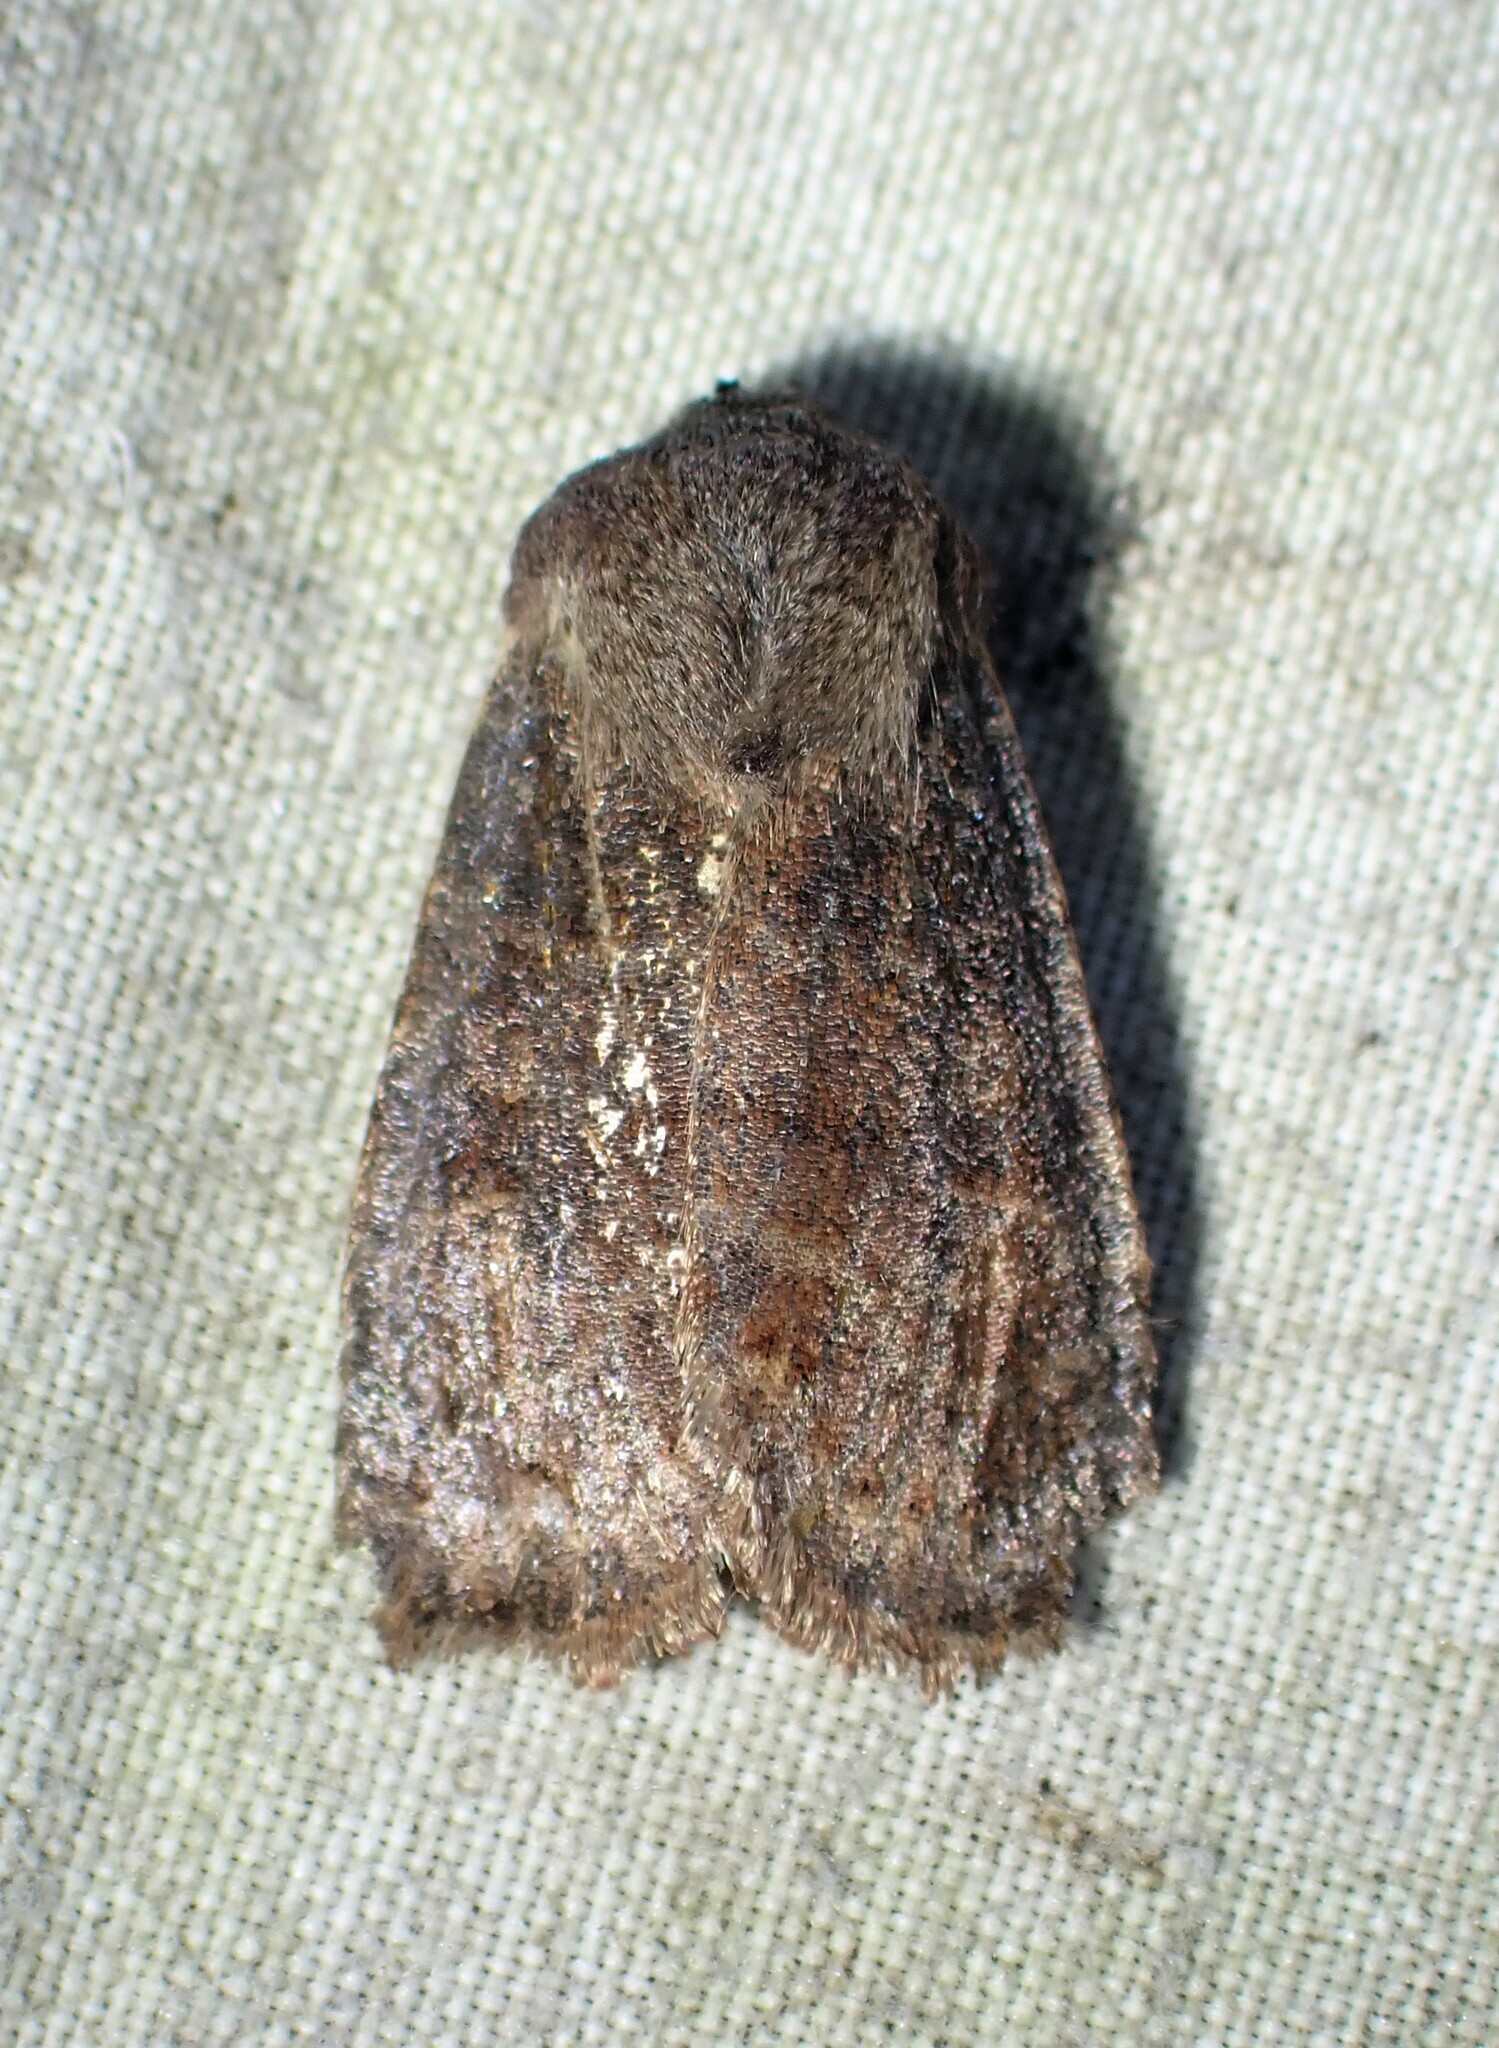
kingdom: Animalia
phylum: Arthropoda
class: Insecta
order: Lepidoptera
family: Noctuidae
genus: Homoglaea
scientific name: Homoglaea hircina
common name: Goat sallow
